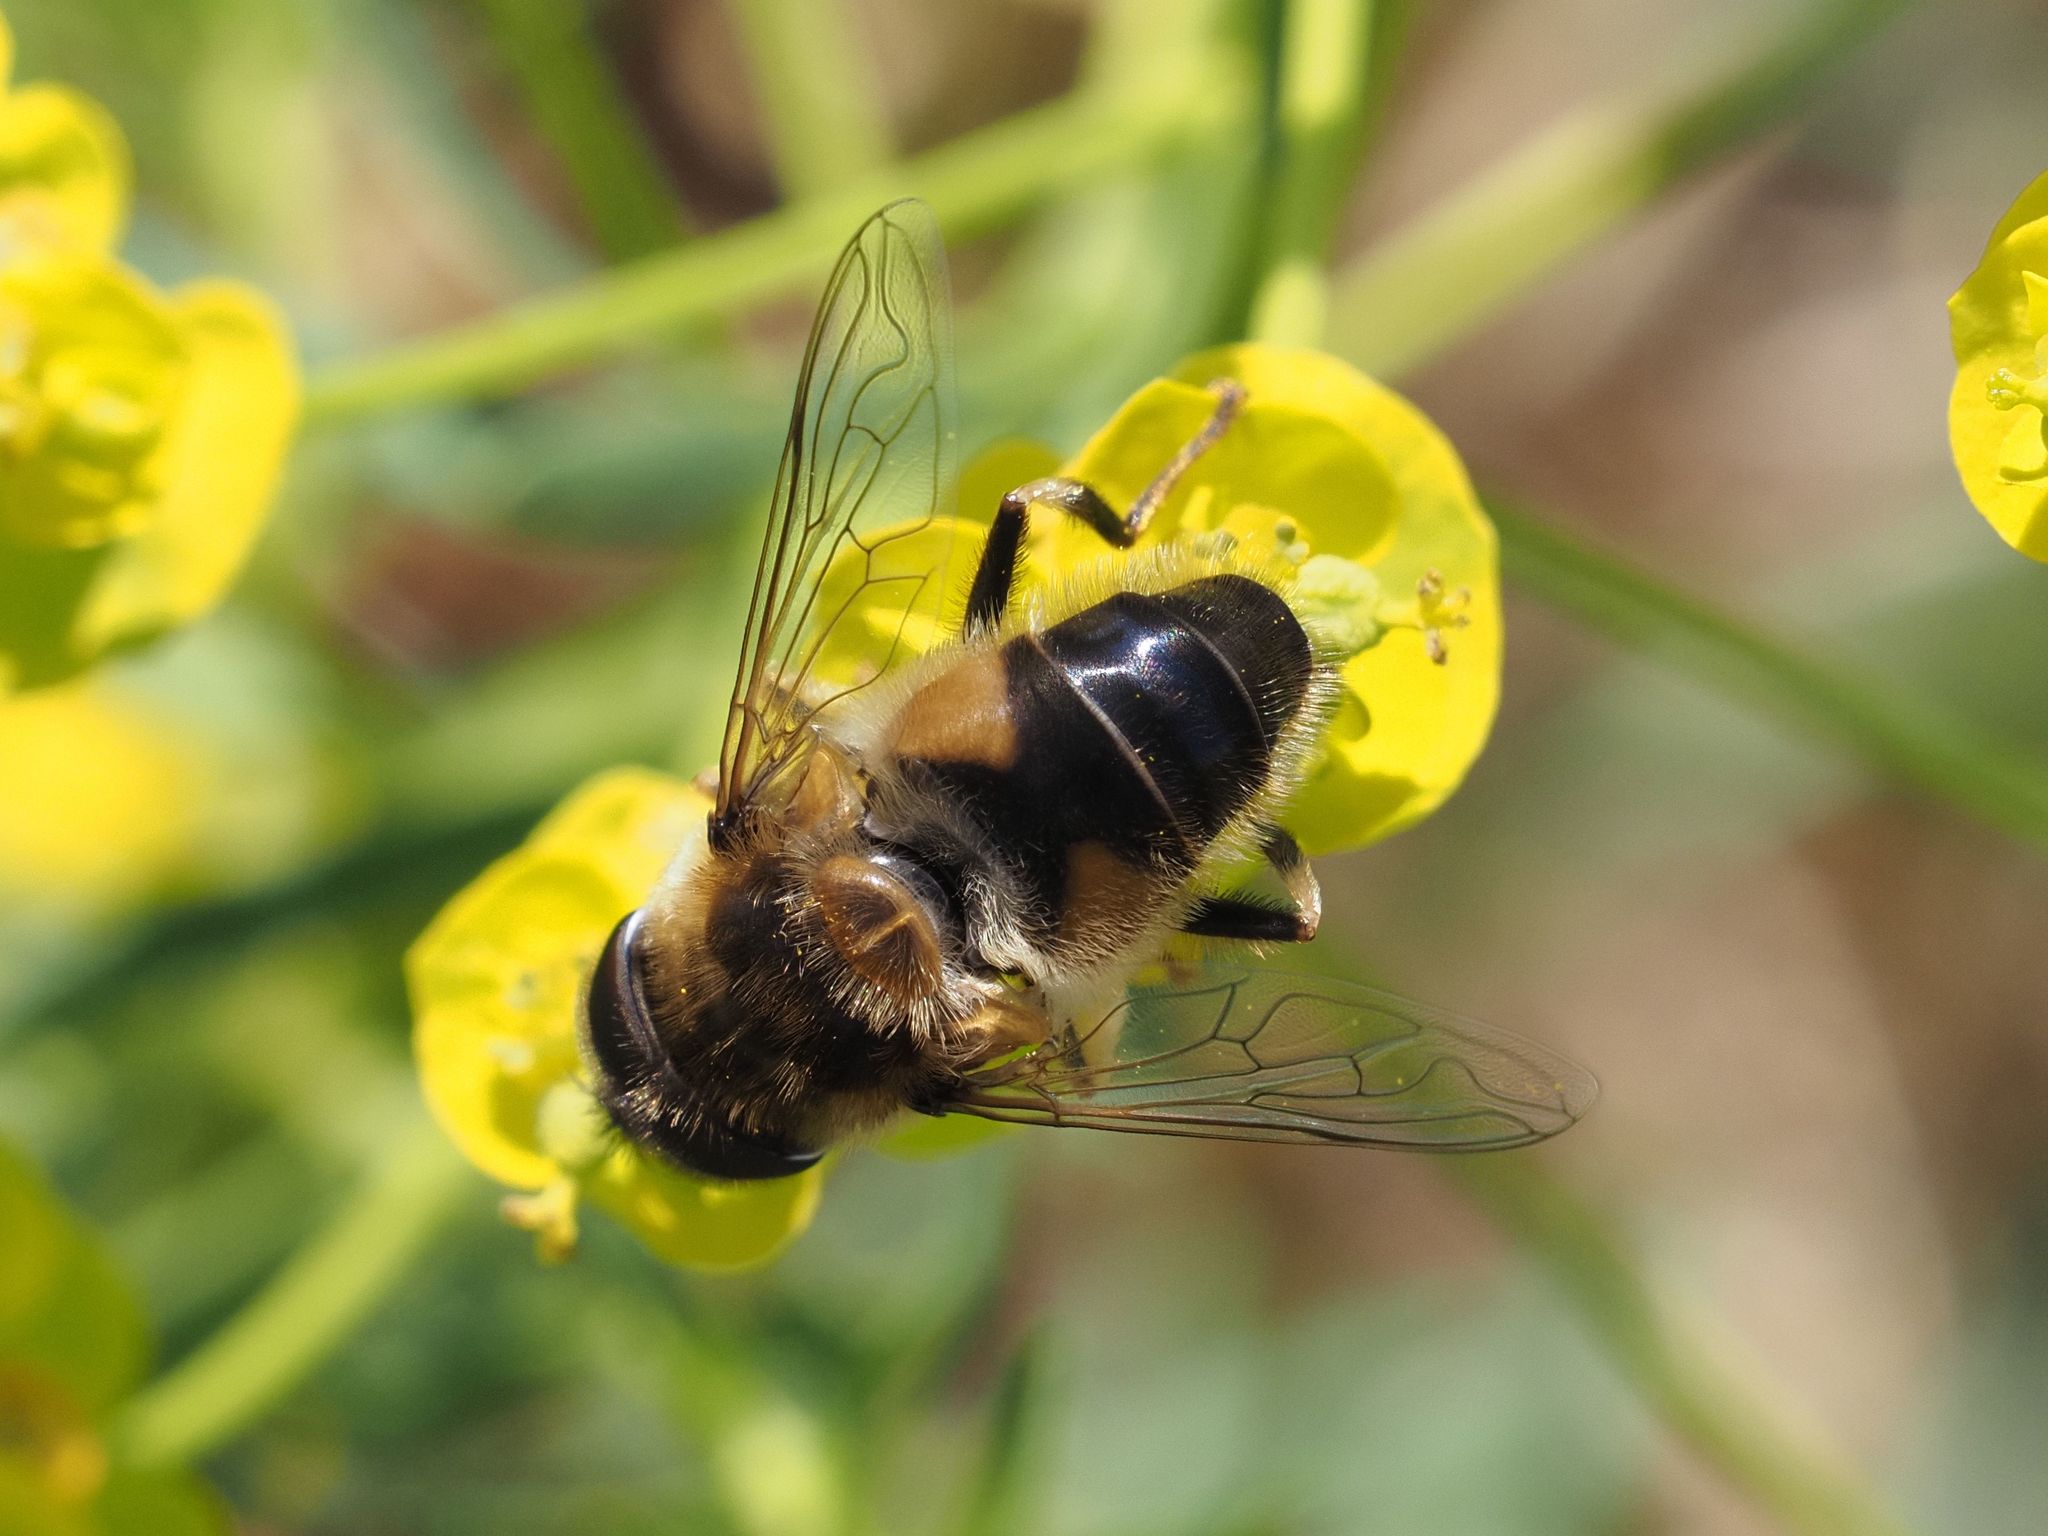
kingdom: Animalia
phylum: Arthropoda
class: Insecta
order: Diptera
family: Syrphidae
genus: Eristalis
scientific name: Eristalis pertinax
